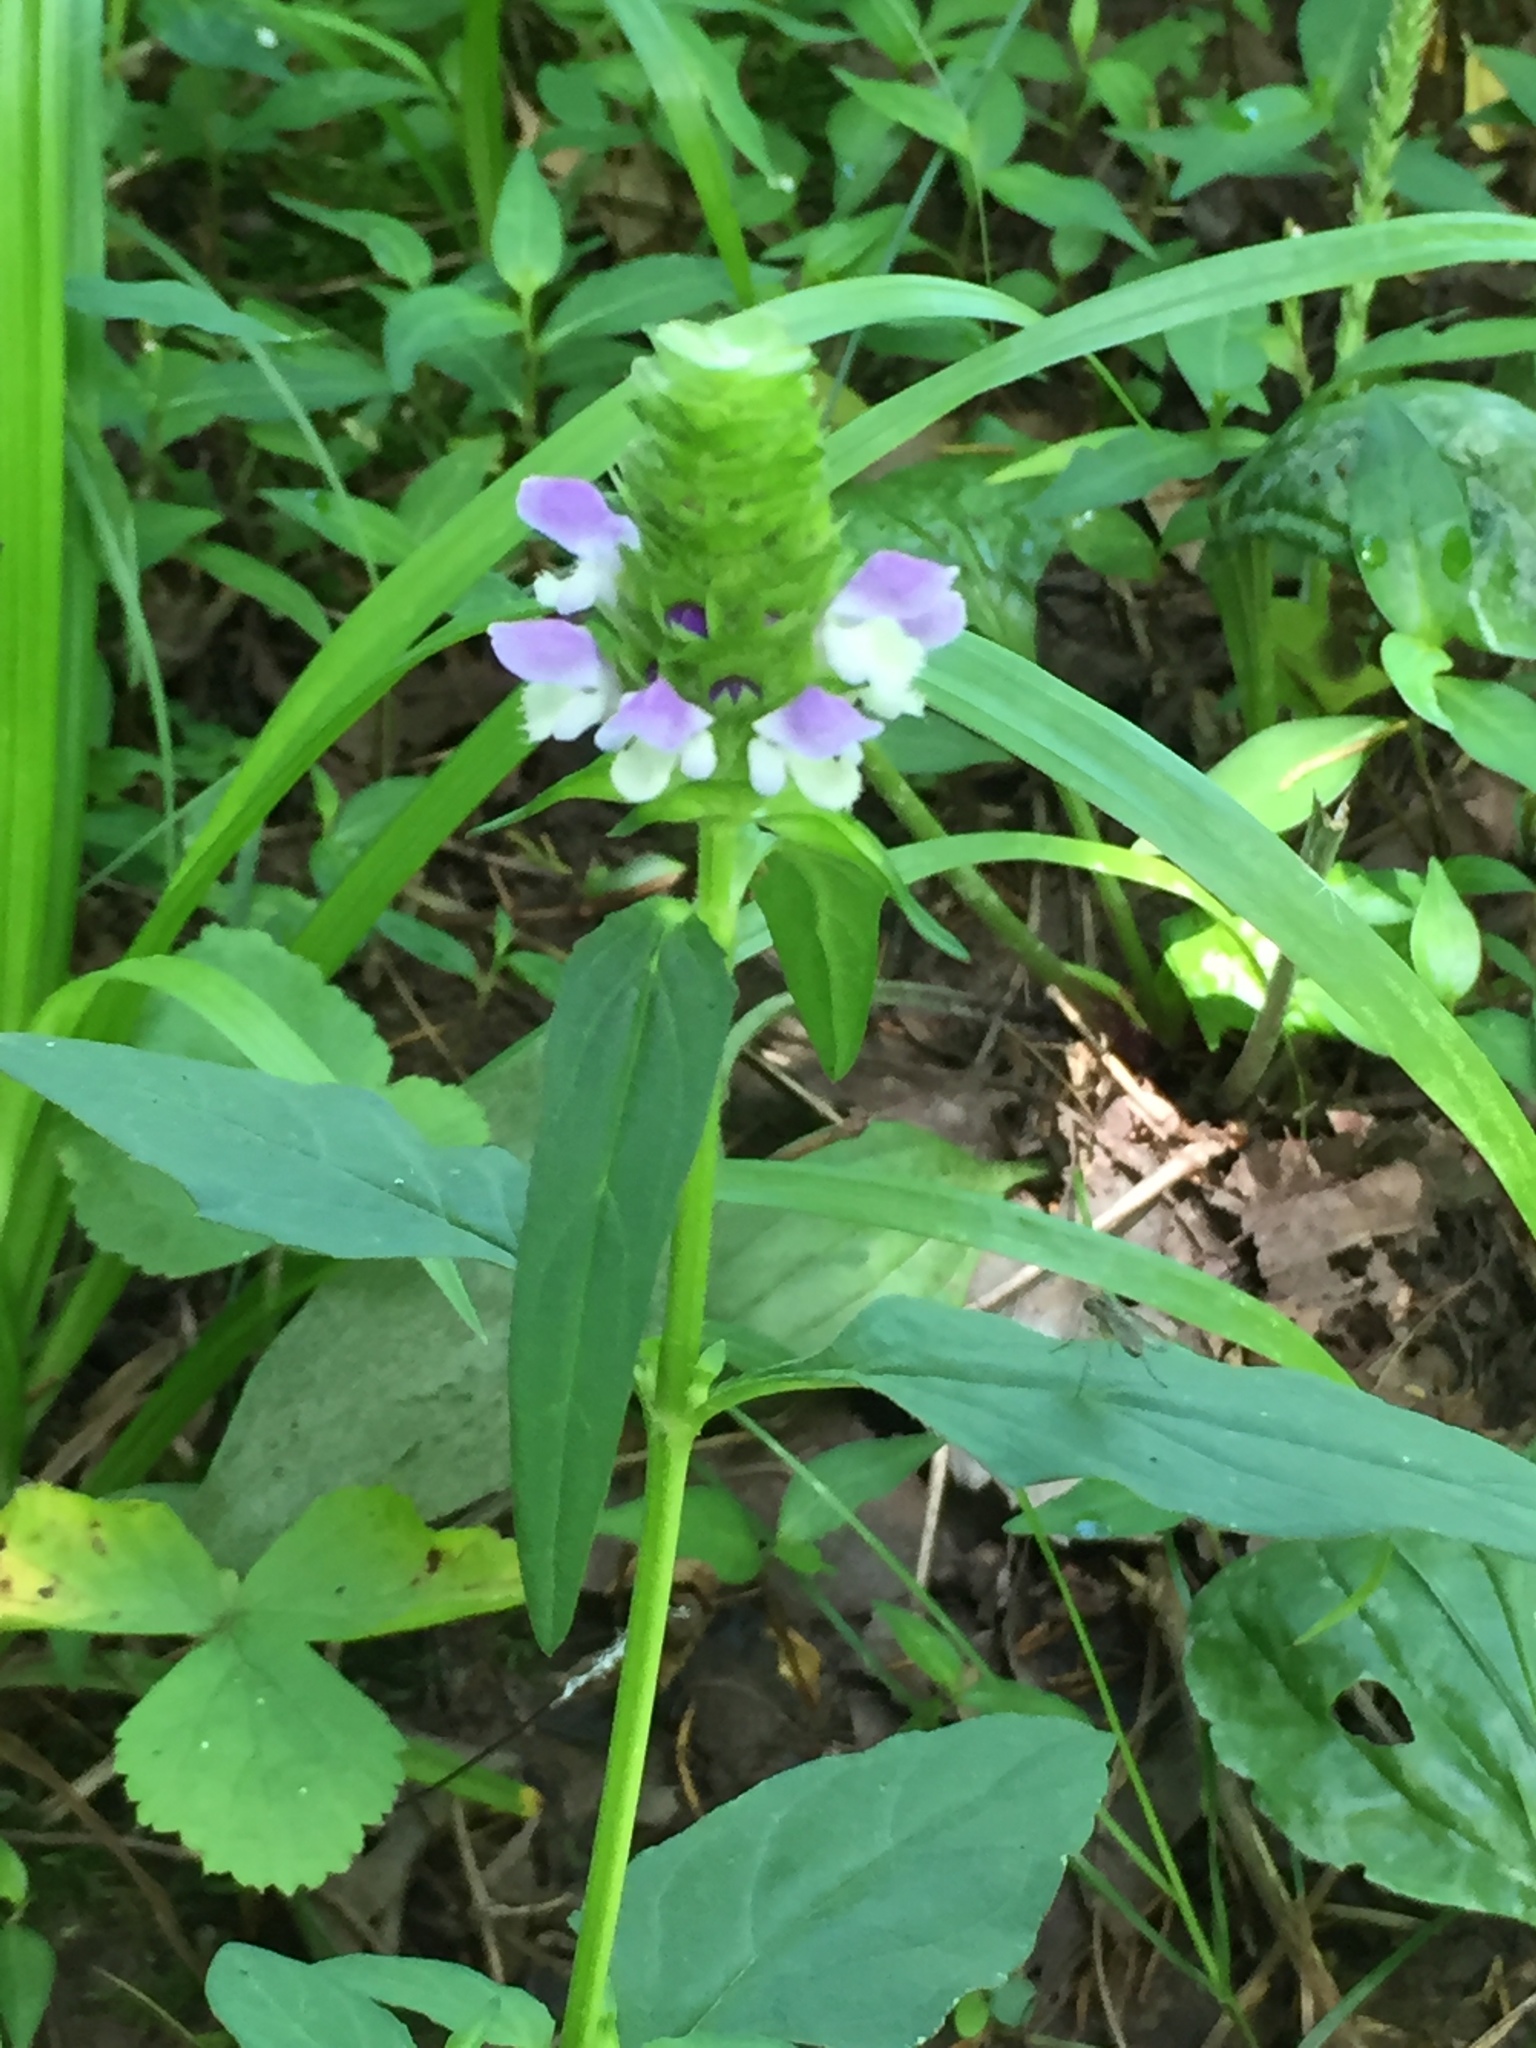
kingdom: Plantae
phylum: Tracheophyta
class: Magnoliopsida
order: Lamiales
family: Lamiaceae
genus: Prunella
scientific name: Prunella vulgaris
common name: Heal-all
